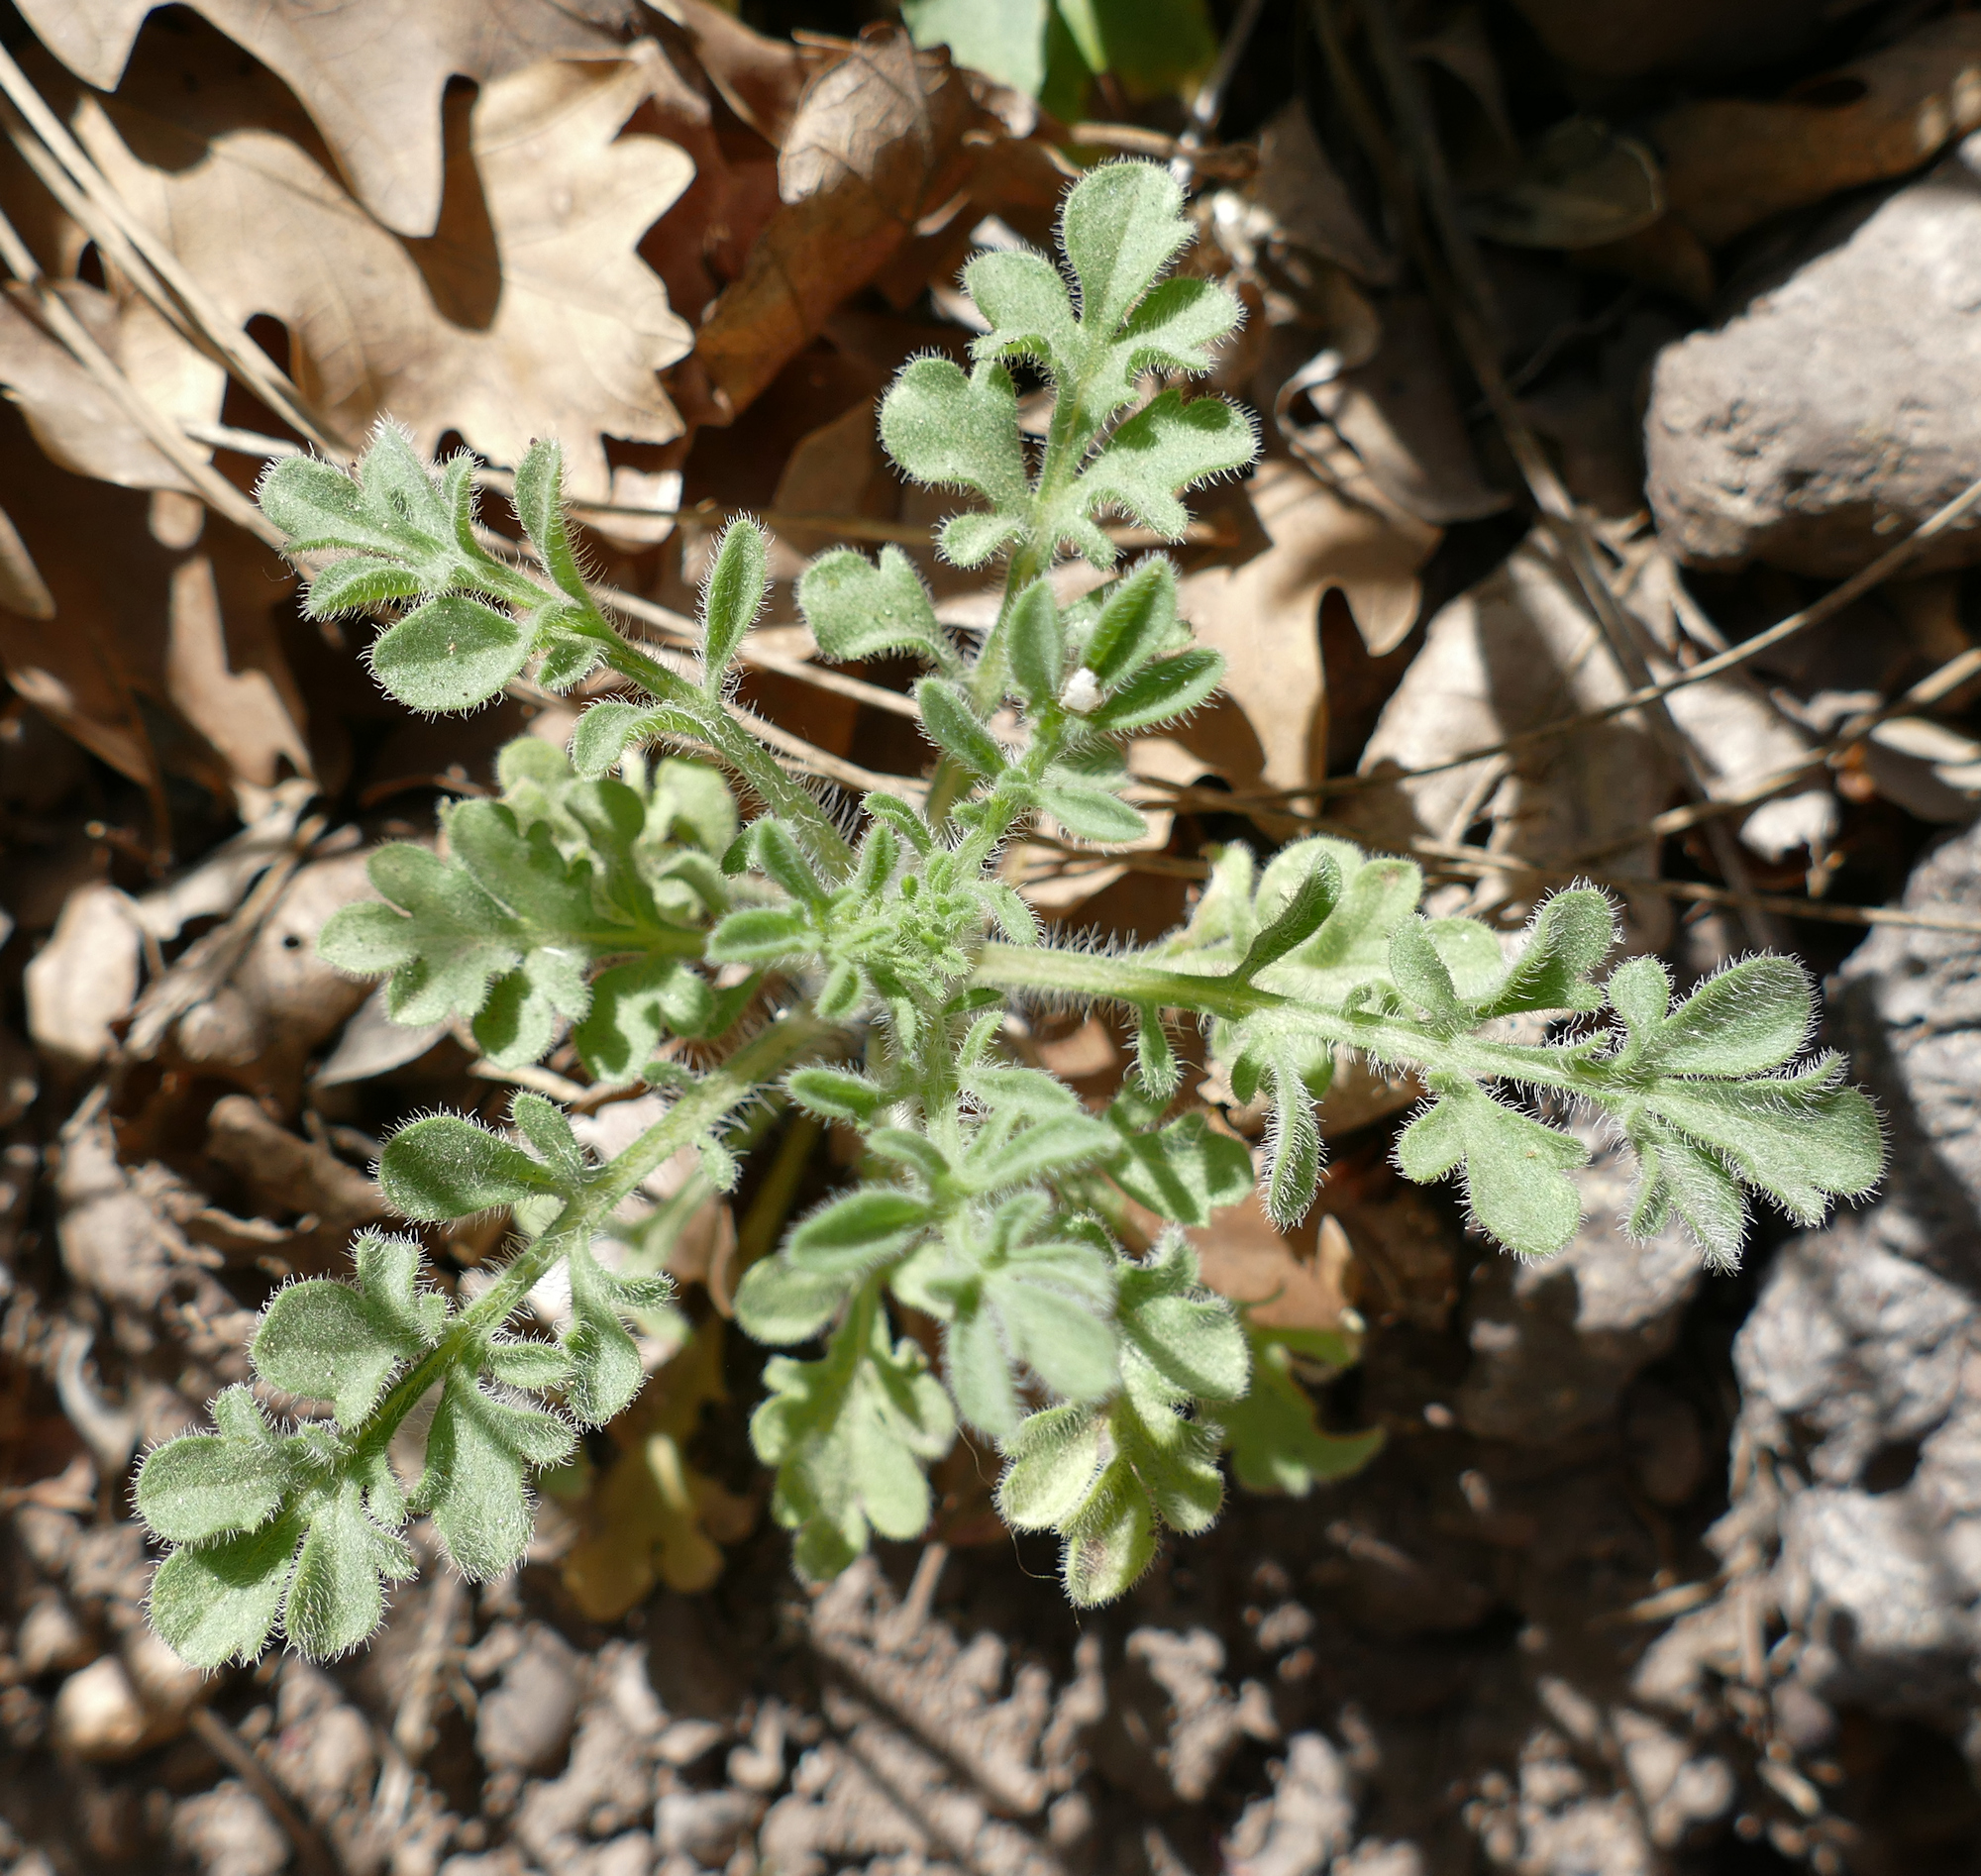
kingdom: Plantae
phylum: Tracheophyta
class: Magnoliopsida
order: Asterales
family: Asteraceae
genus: Erigeron
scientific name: Erigeron neomexicanus
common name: New mexico fleabane
